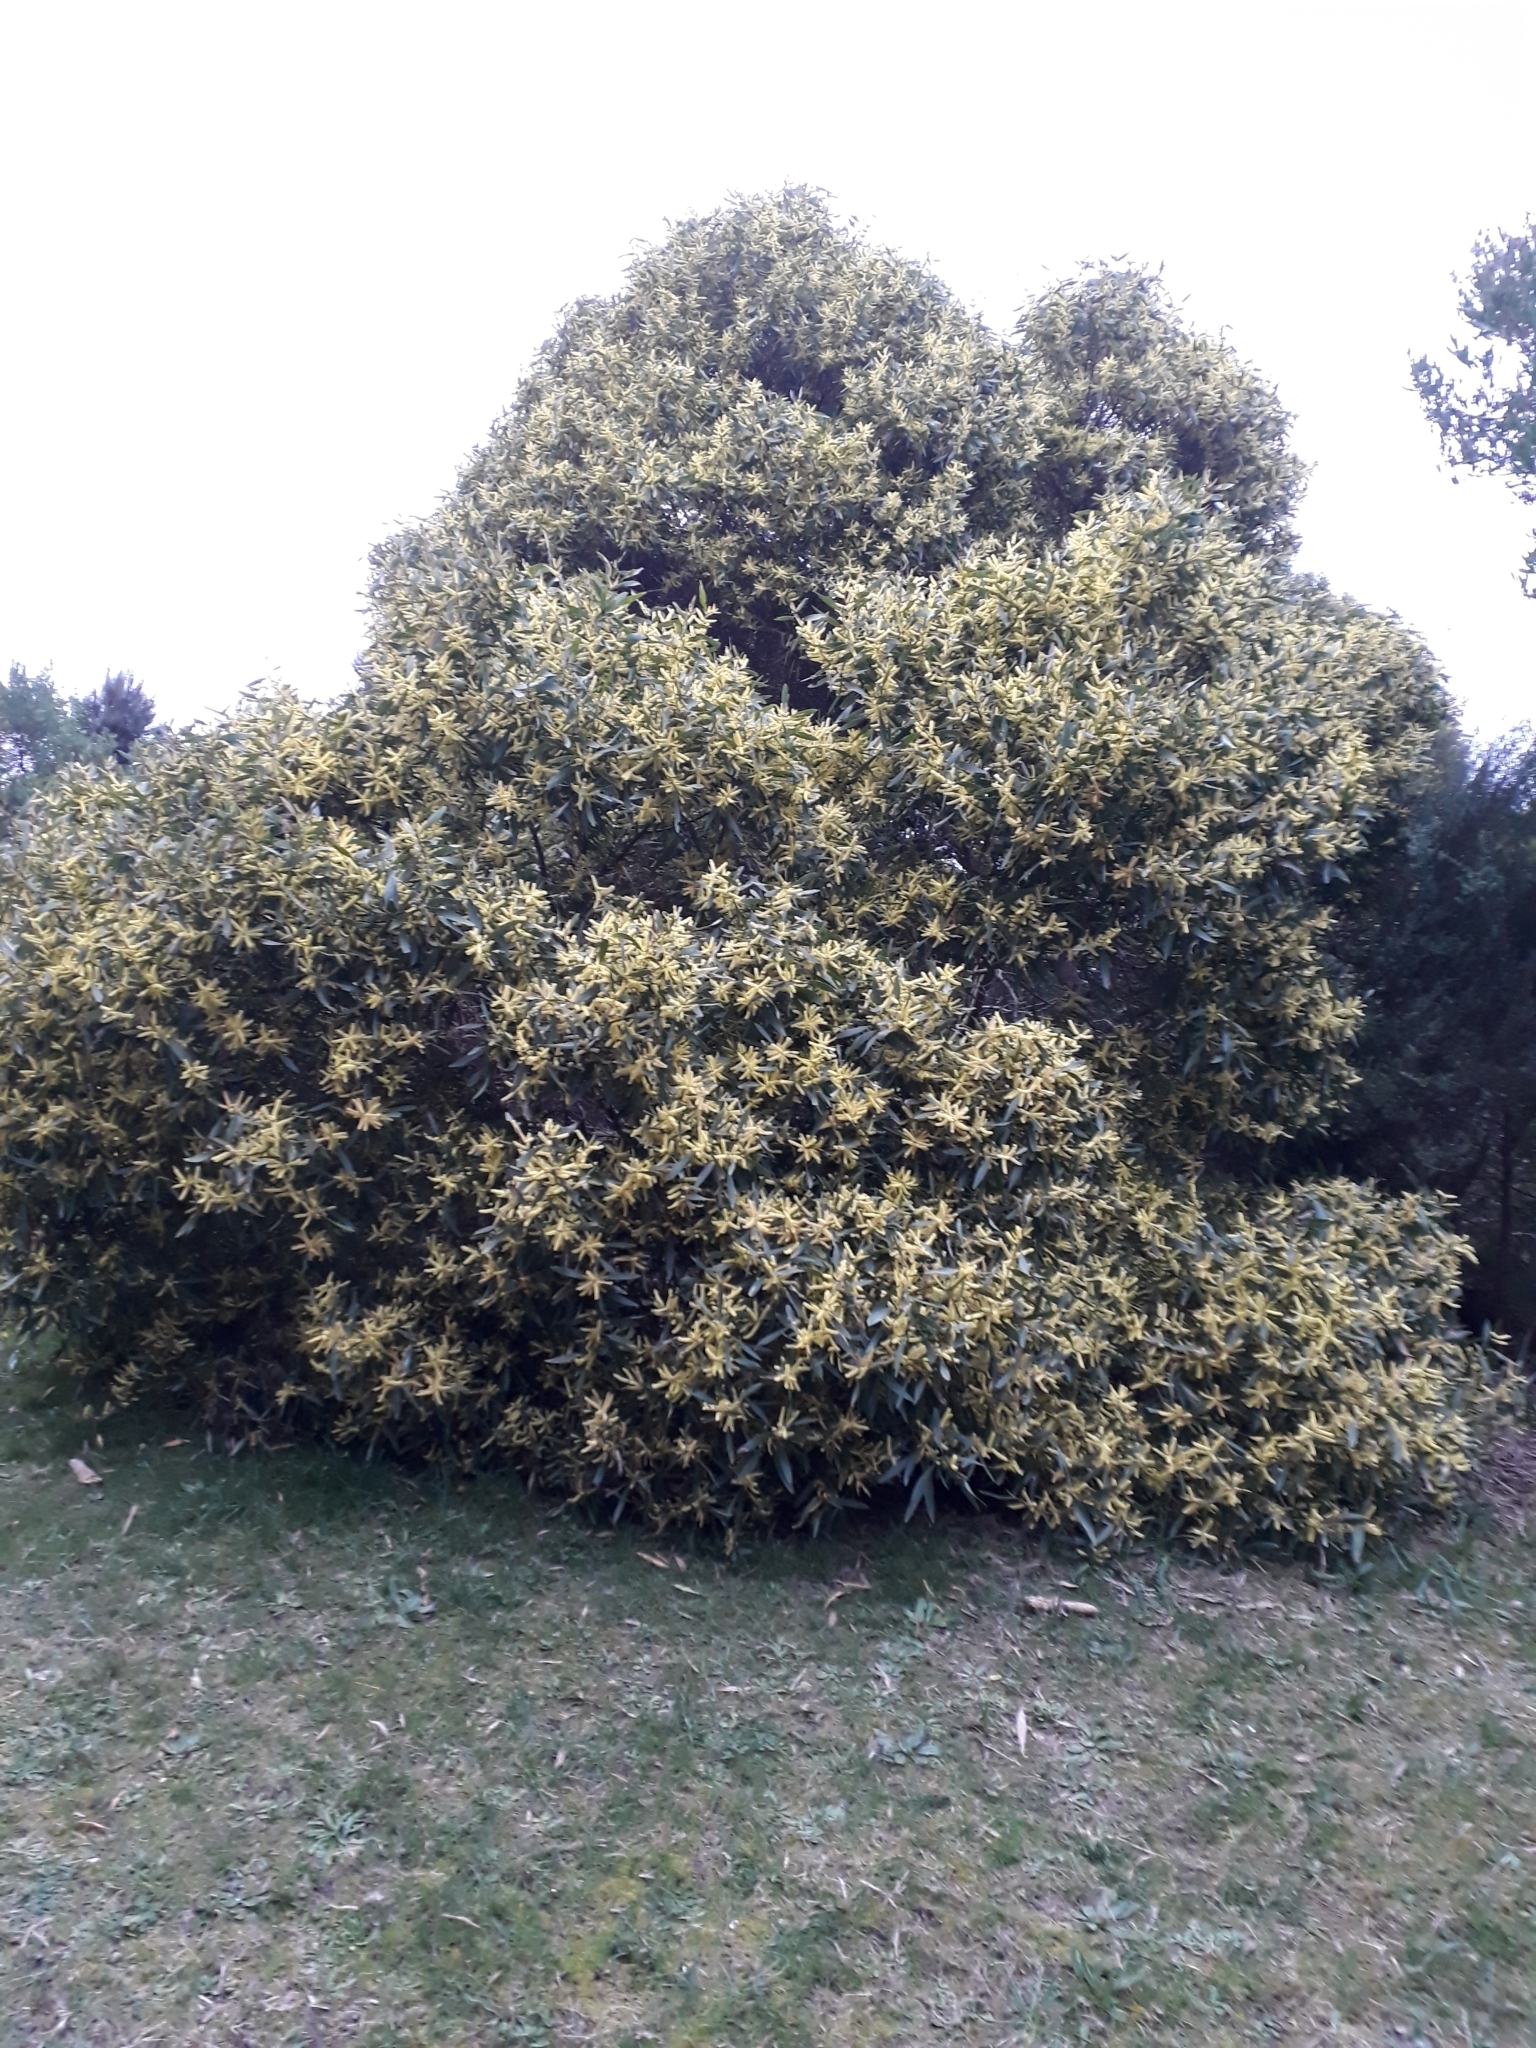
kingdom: Plantae
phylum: Tracheophyta
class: Magnoliopsida
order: Fabales
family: Fabaceae
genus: Acacia
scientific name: Acacia longifolia
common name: Sydney golden wattle
